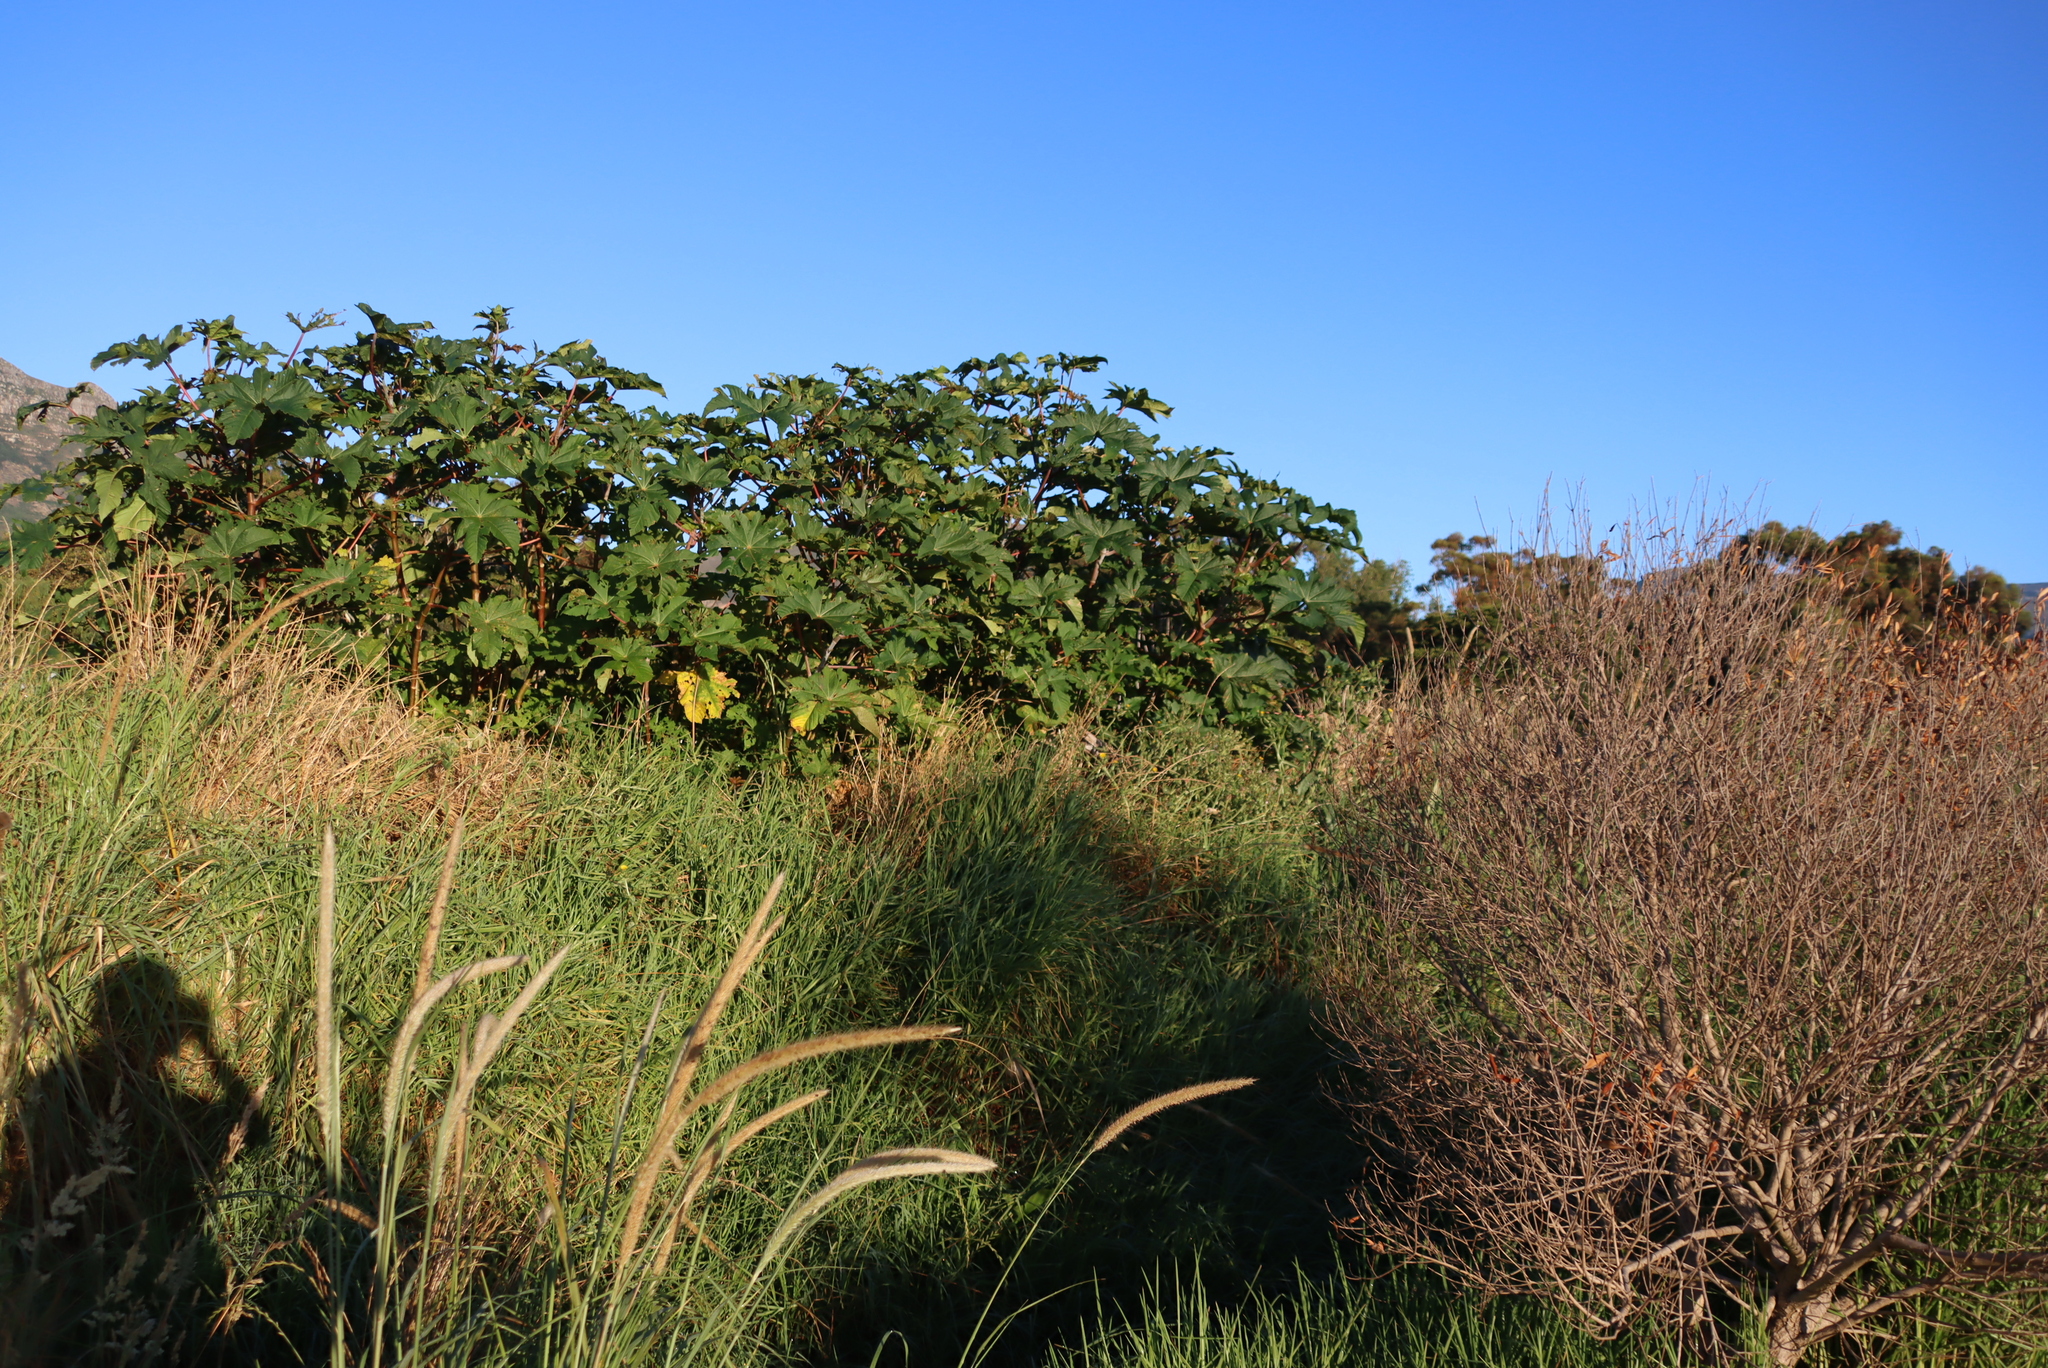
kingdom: Plantae
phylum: Tracheophyta
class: Magnoliopsida
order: Malpighiales
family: Euphorbiaceae
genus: Ricinus
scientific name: Ricinus communis
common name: Castor-oil-plant
